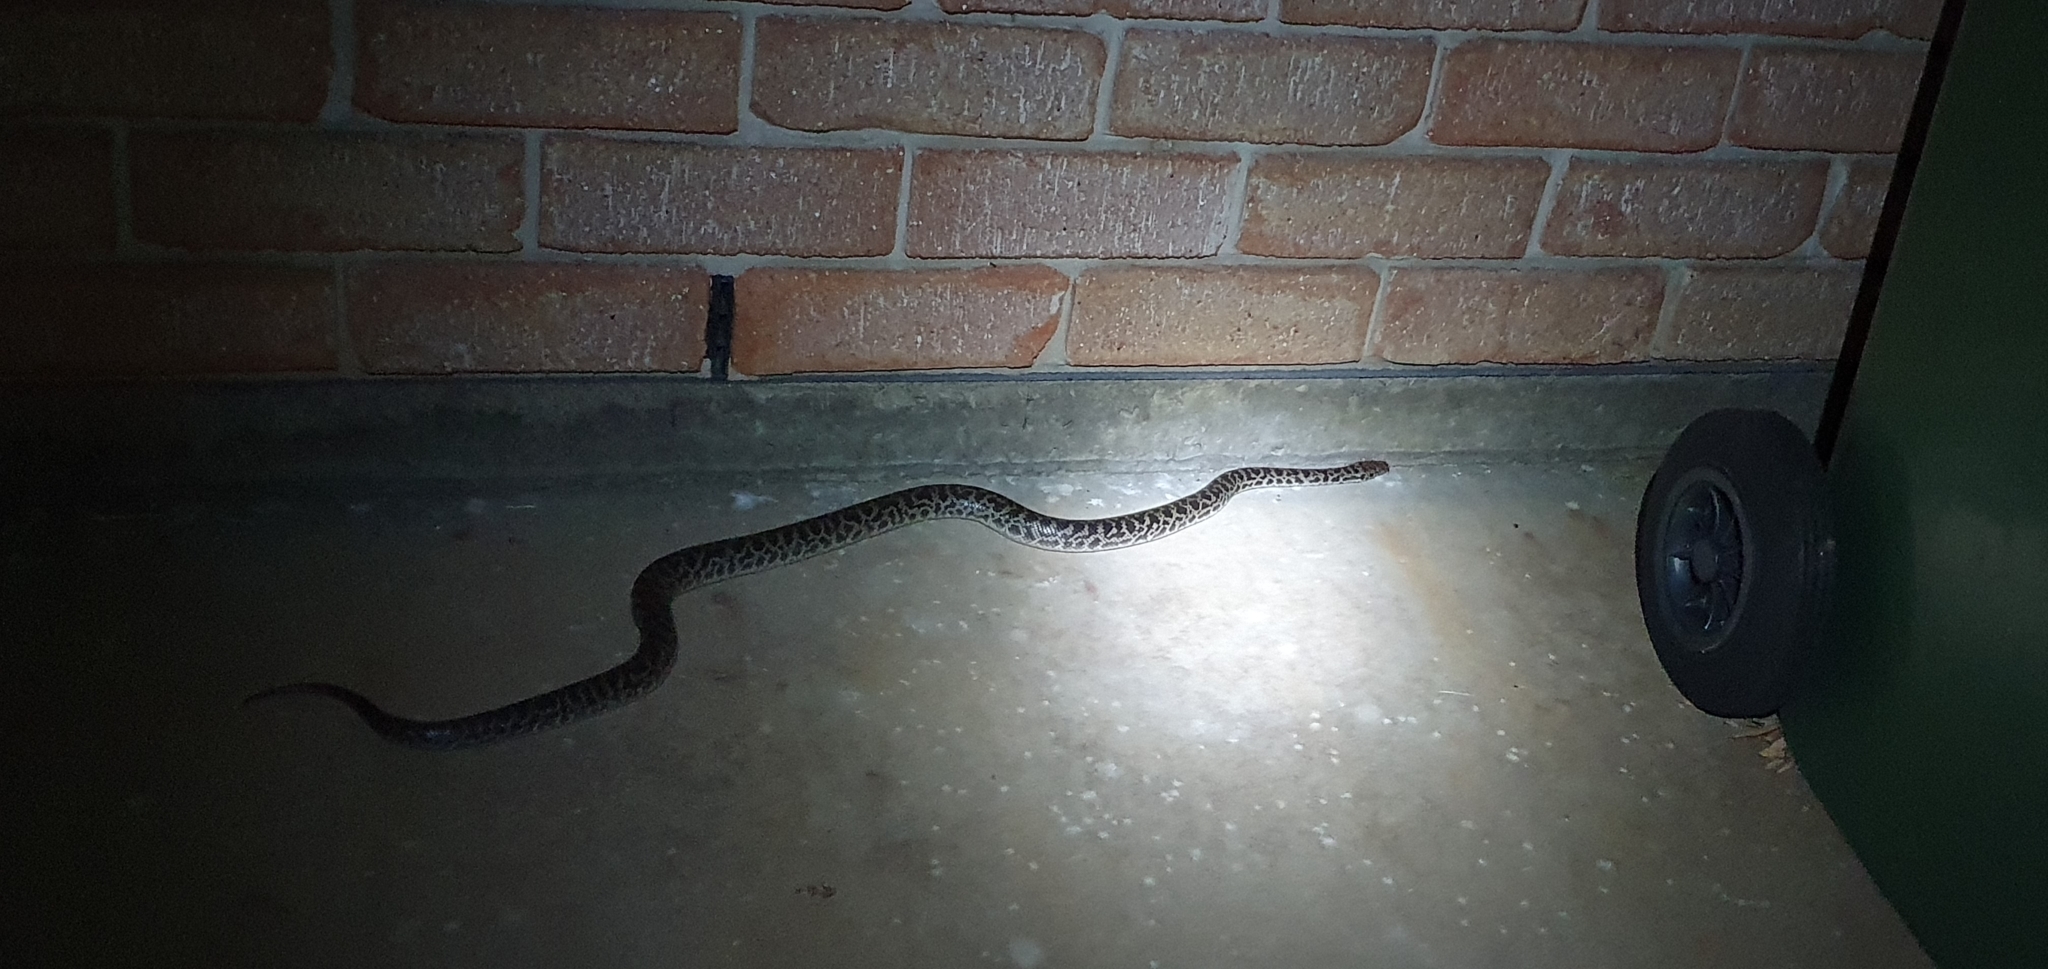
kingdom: Animalia
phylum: Chordata
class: Squamata
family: Pythonidae
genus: Antaresia
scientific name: Antaresia maculosa
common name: Eastern childrens python
